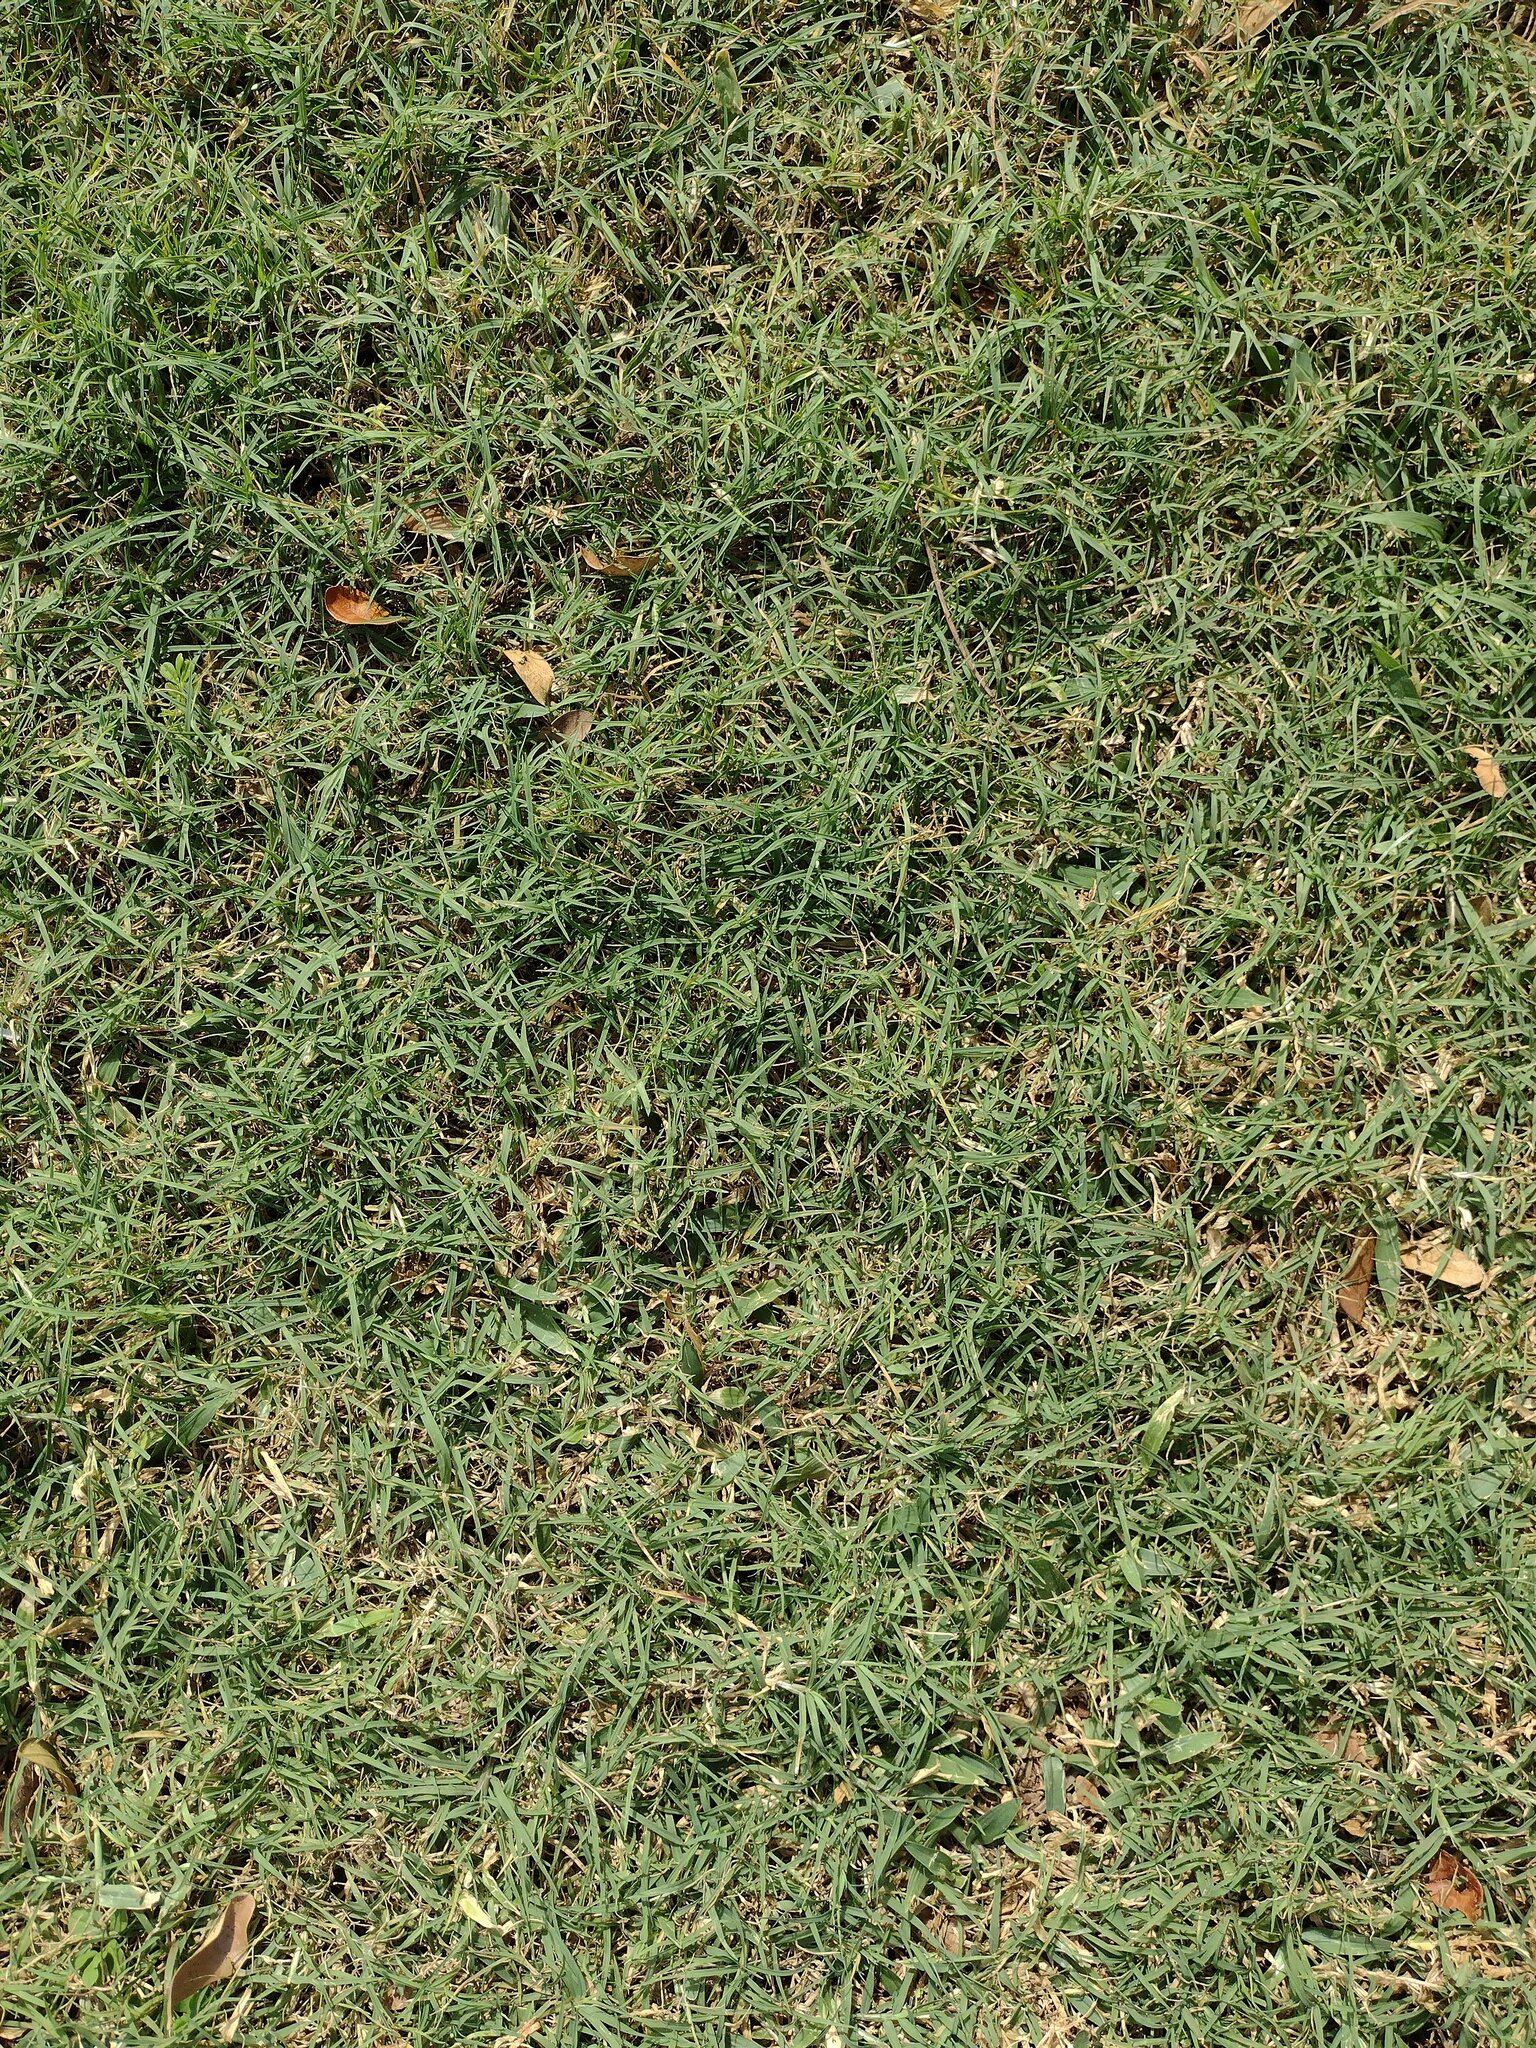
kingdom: Plantae
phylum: Tracheophyta
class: Liliopsida
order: Poales
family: Poaceae
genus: Cynodon
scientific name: Cynodon dactylon
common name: Bermuda grass
